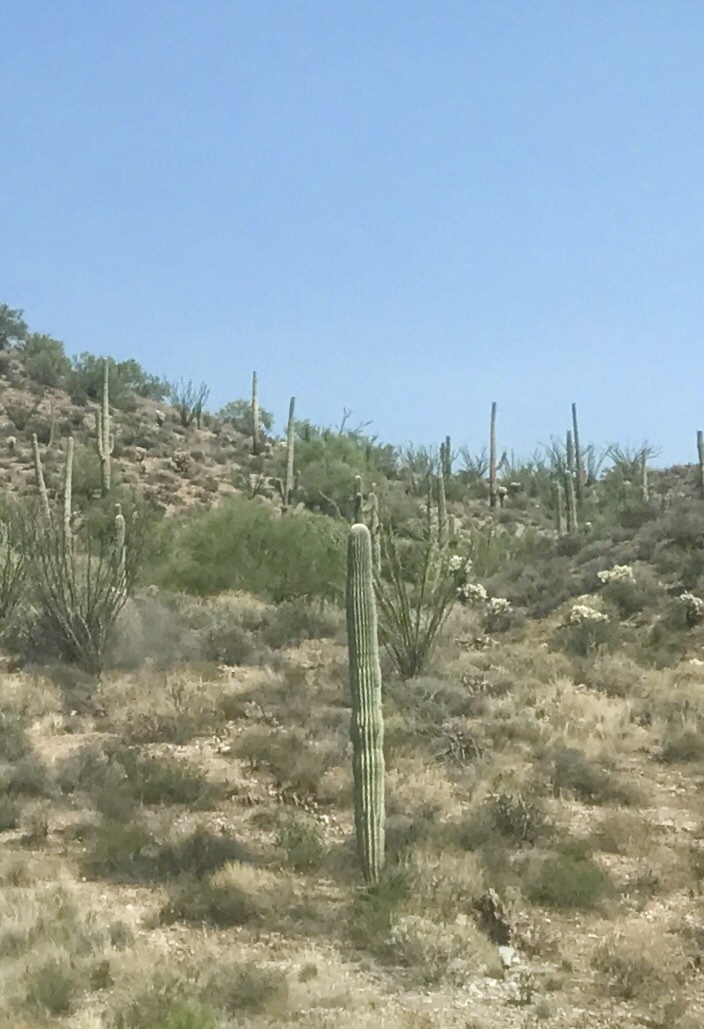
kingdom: Plantae
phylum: Tracheophyta
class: Magnoliopsida
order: Caryophyllales
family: Cactaceae
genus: Carnegiea
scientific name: Carnegiea gigantea
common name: Saguaro
